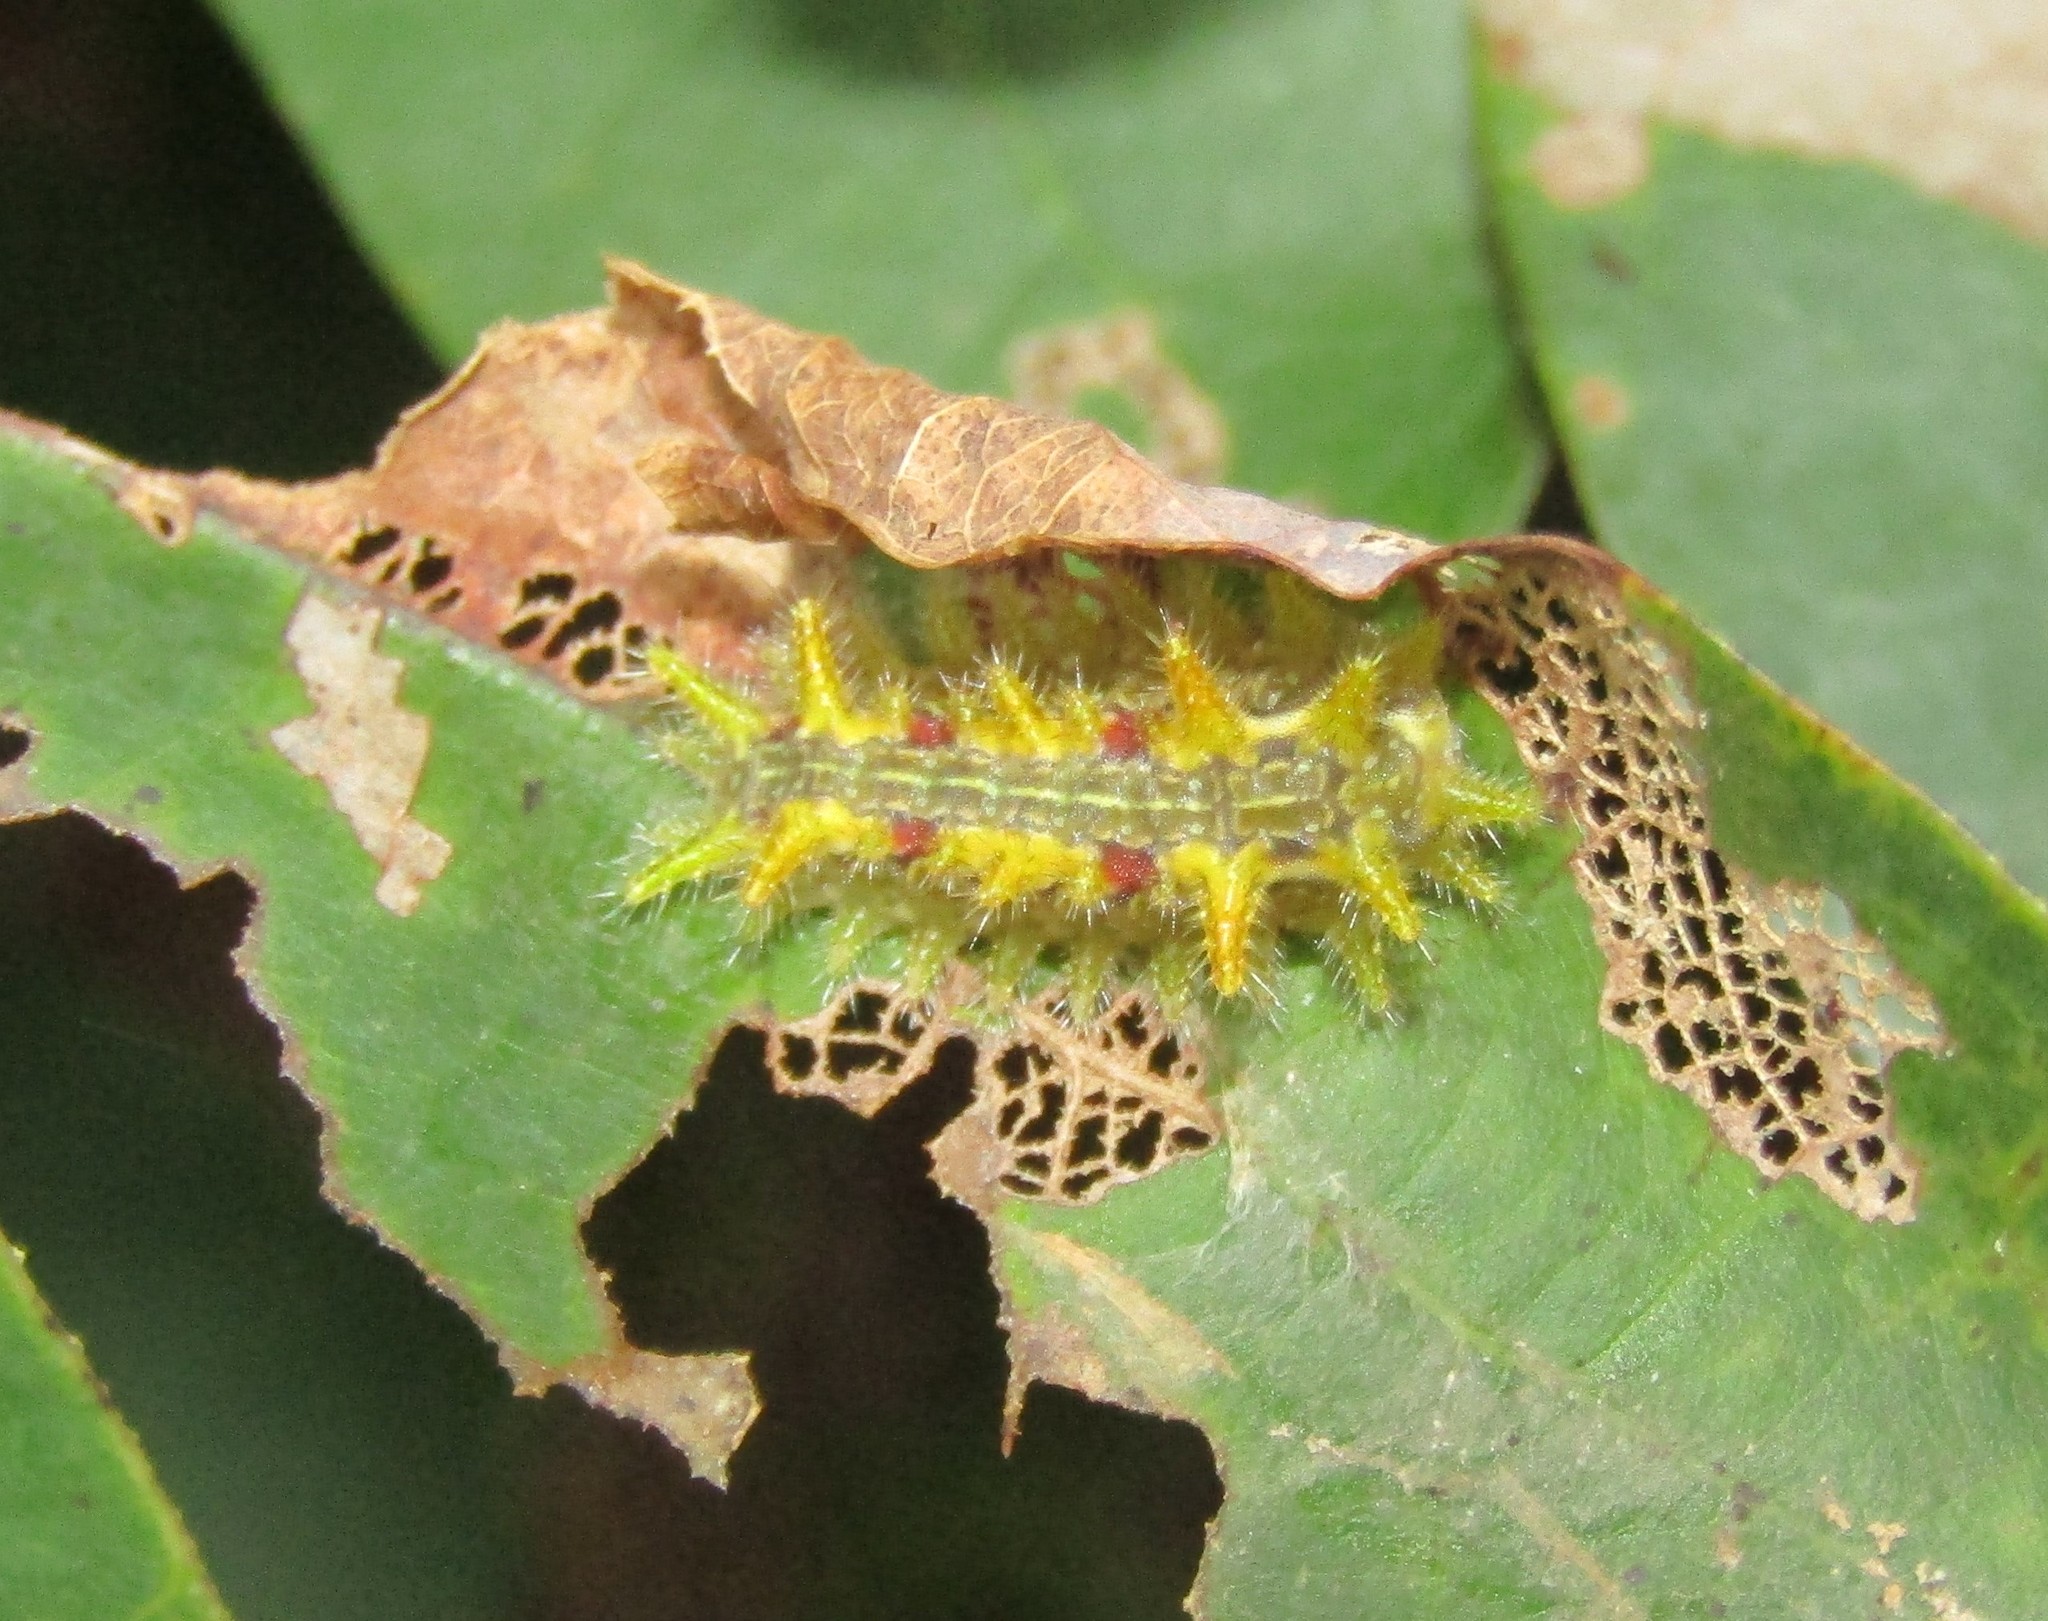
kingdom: Animalia
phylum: Arthropoda
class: Insecta
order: Lepidoptera
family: Limacodidae
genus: Euclea
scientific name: Euclea delphinii
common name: Spiny oak-slug moth
